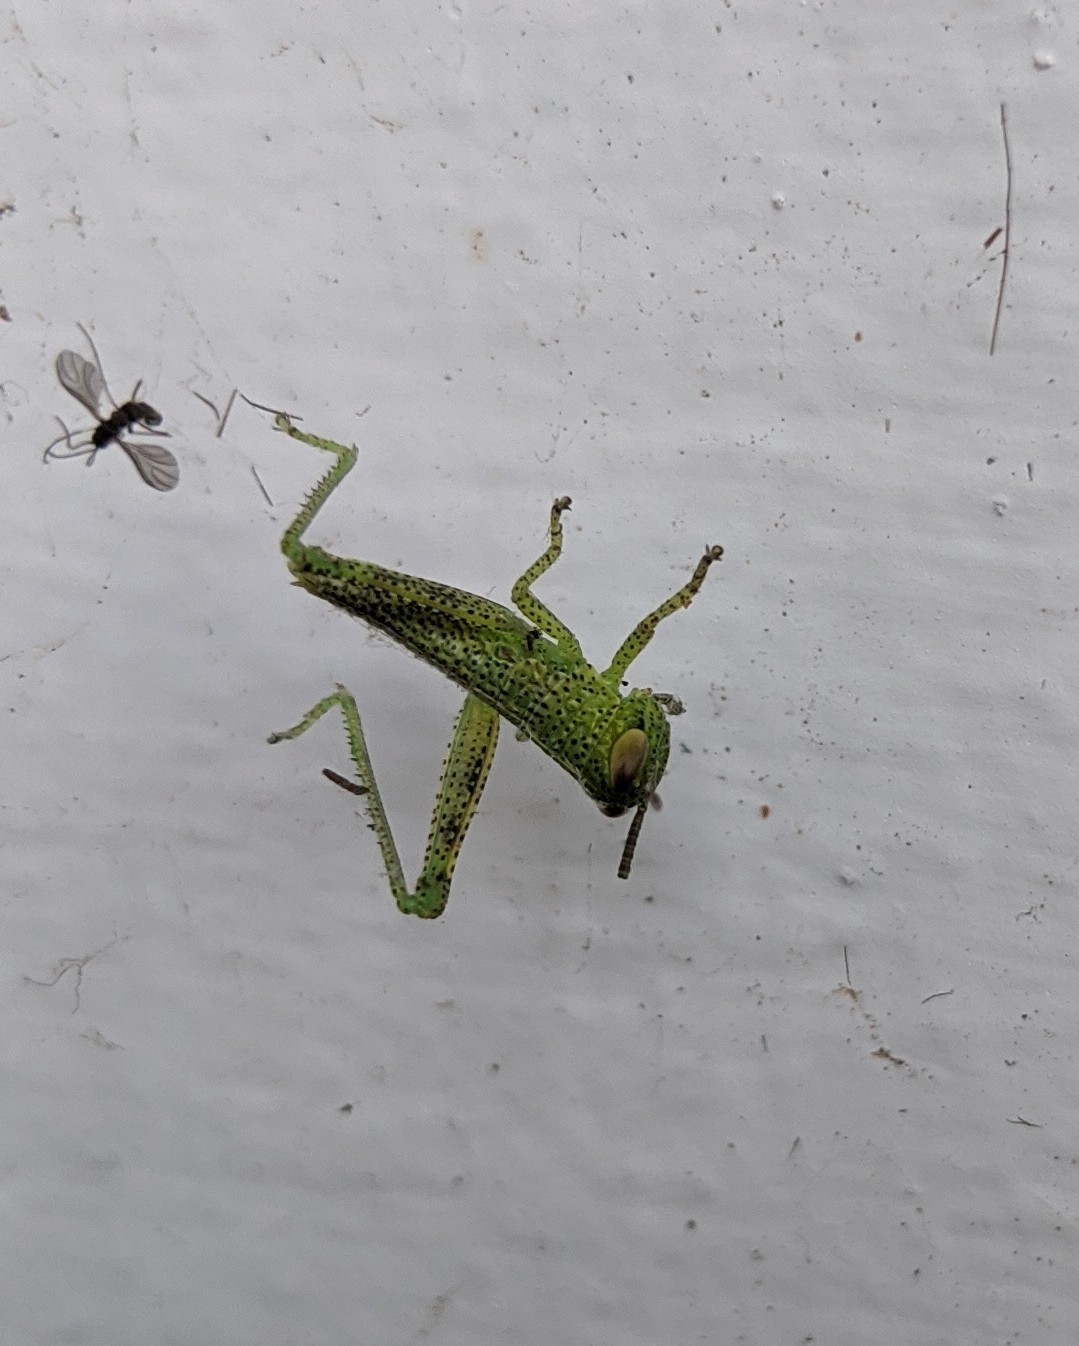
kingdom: Animalia
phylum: Arthropoda
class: Insecta
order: Orthoptera
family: Acrididae
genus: Valanga
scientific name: Valanga irregularis
